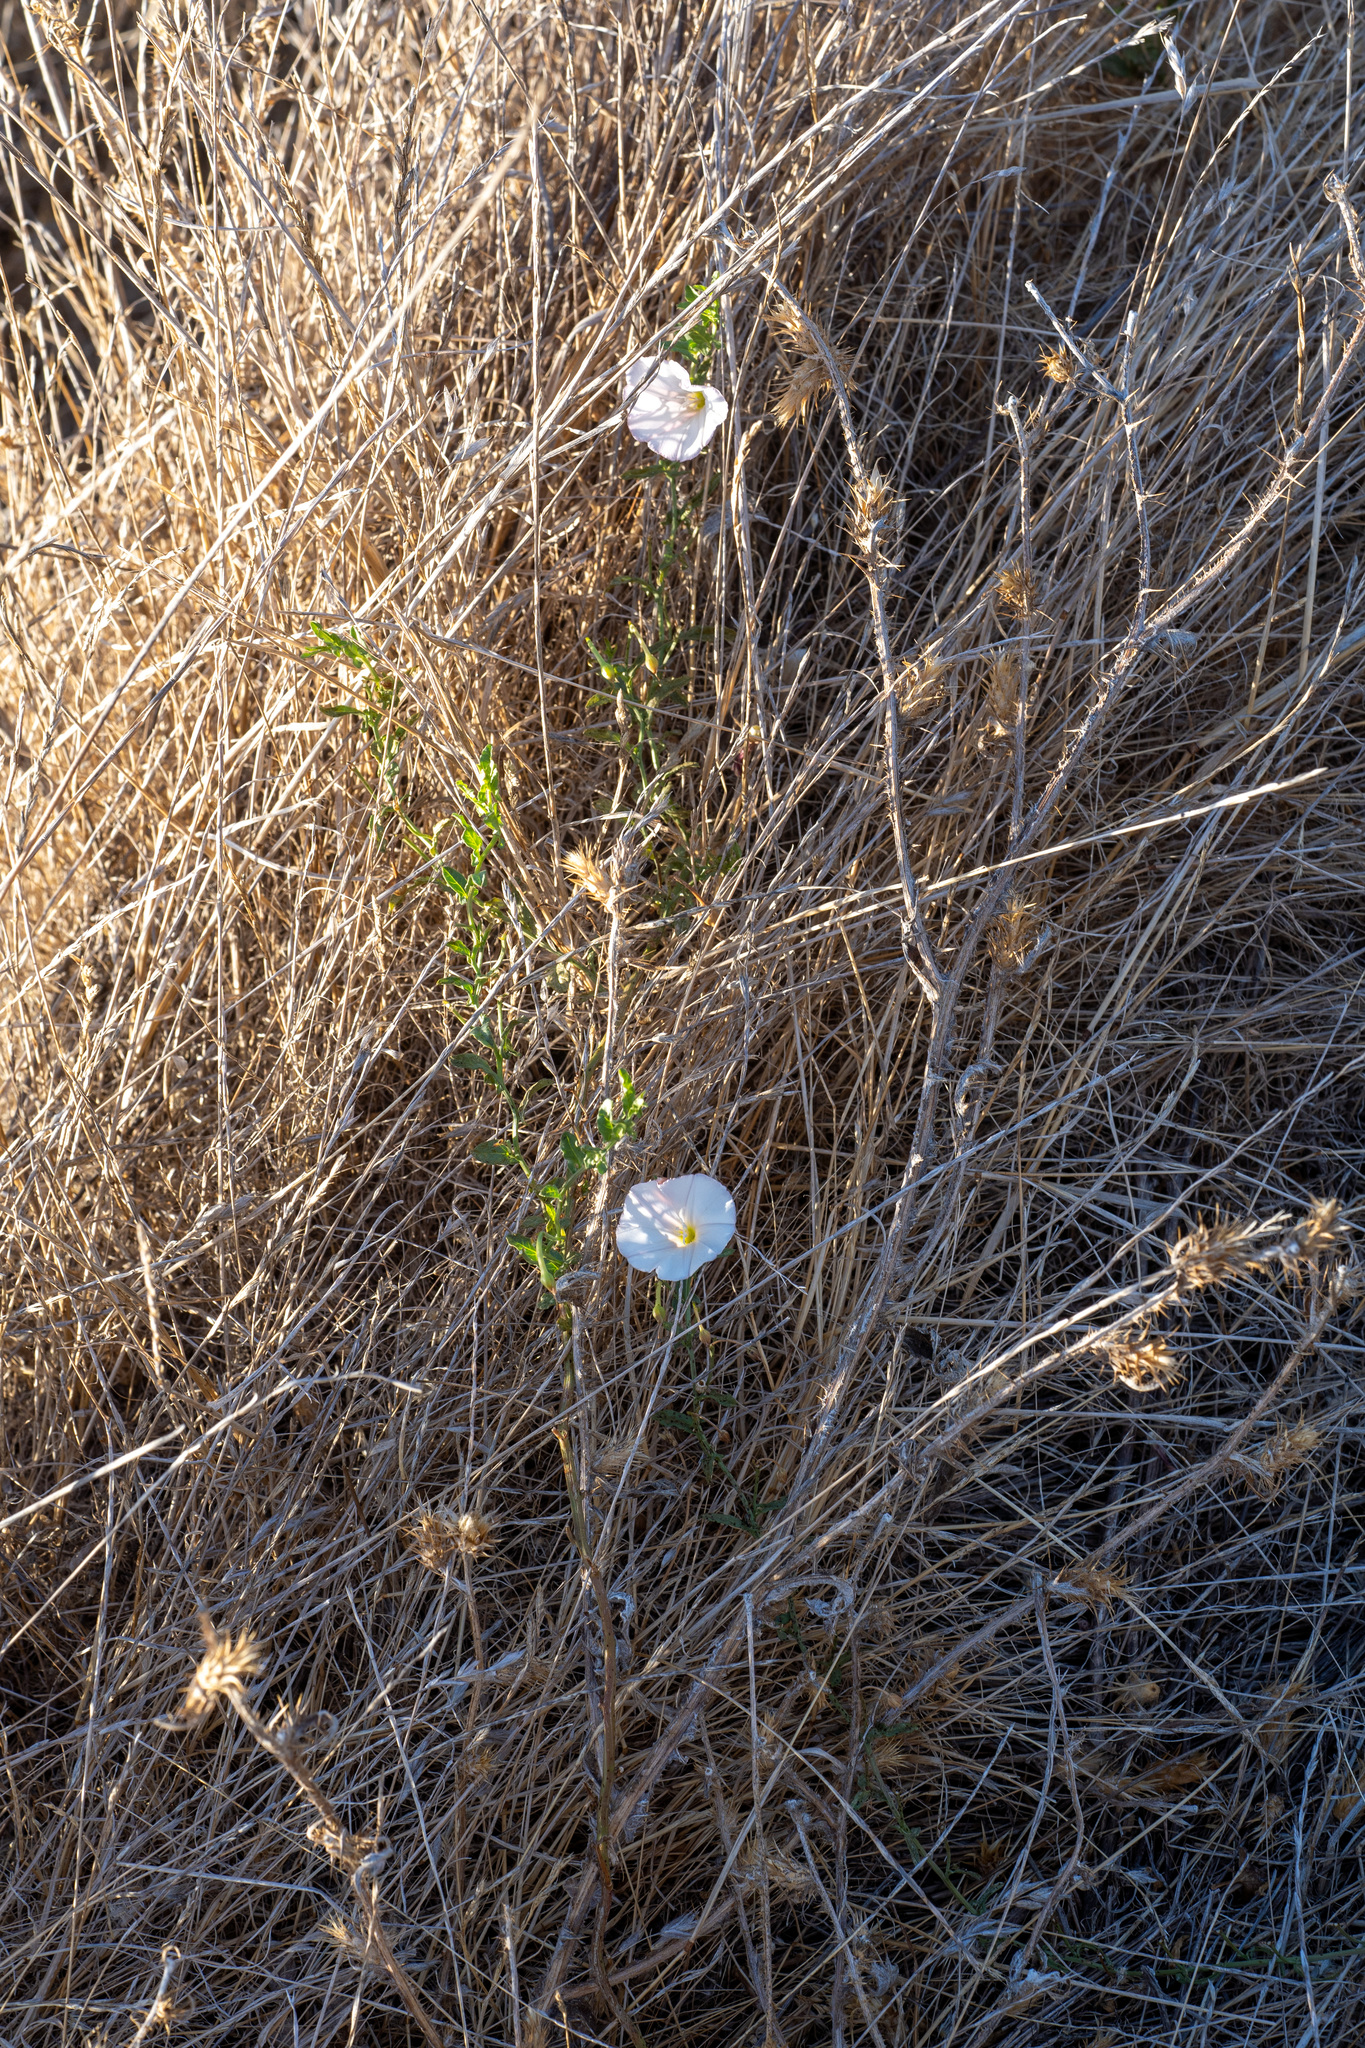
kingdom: Plantae
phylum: Tracheophyta
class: Magnoliopsida
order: Solanales
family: Convolvulaceae
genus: Convolvulus
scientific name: Convolvulus arvensis
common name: Field bindweed
